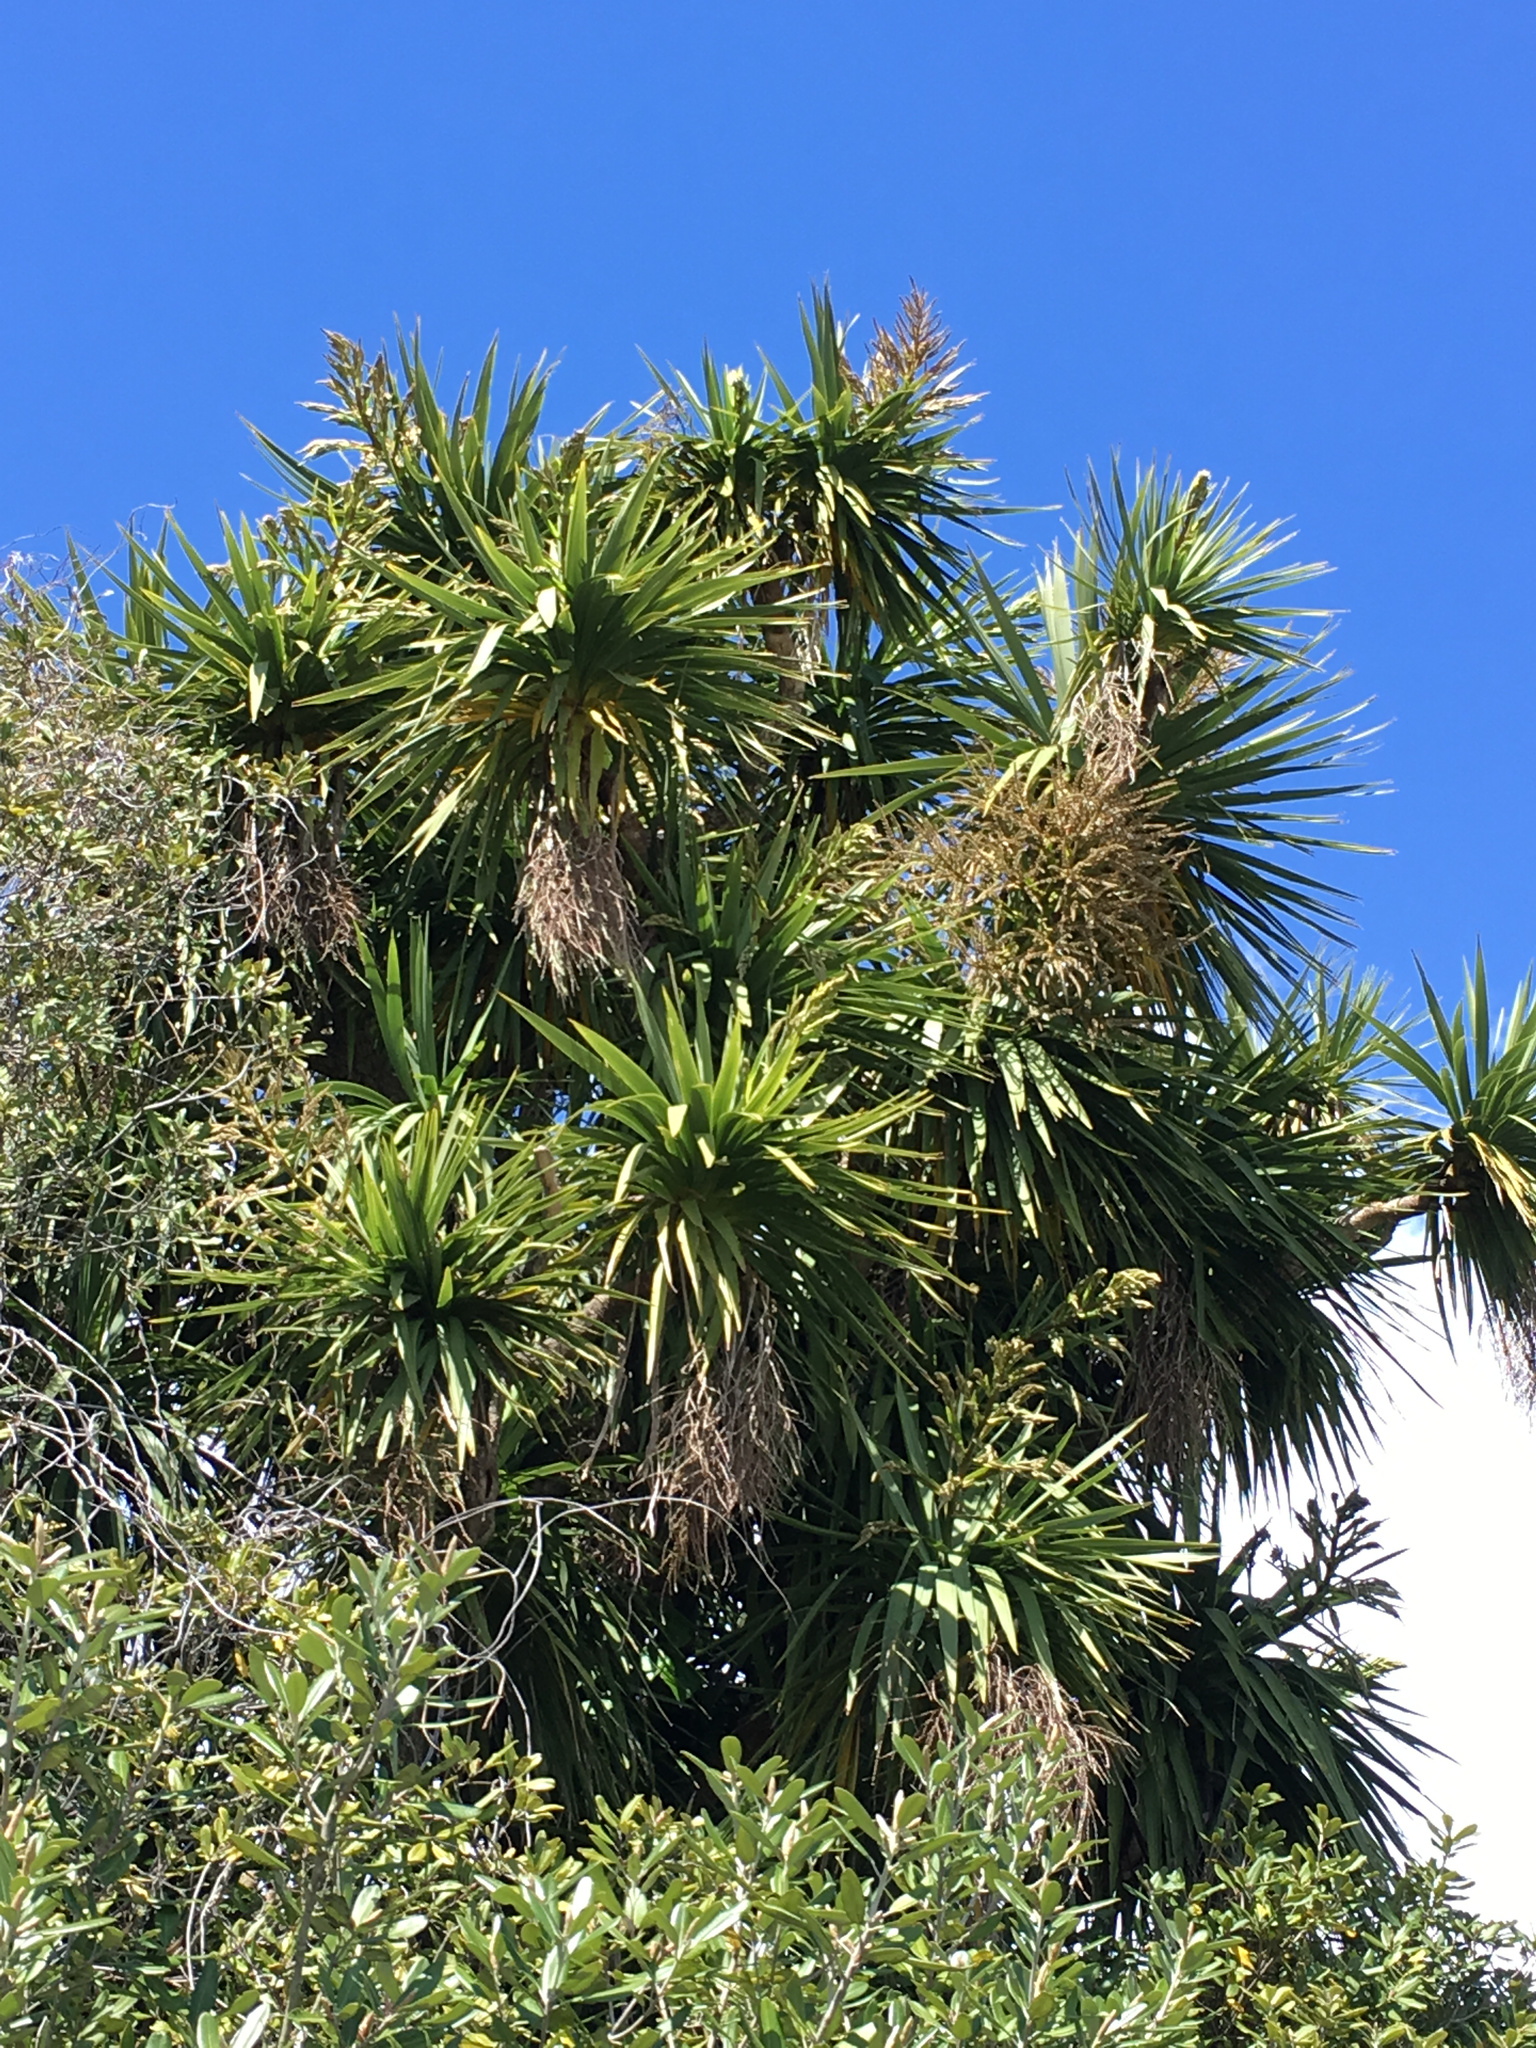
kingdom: Plantae
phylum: Tracheophyta
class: Liliopsida
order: Asparagales
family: Asparagaceae
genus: Cordyline
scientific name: Cordyline australis
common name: Cabbage-palm
